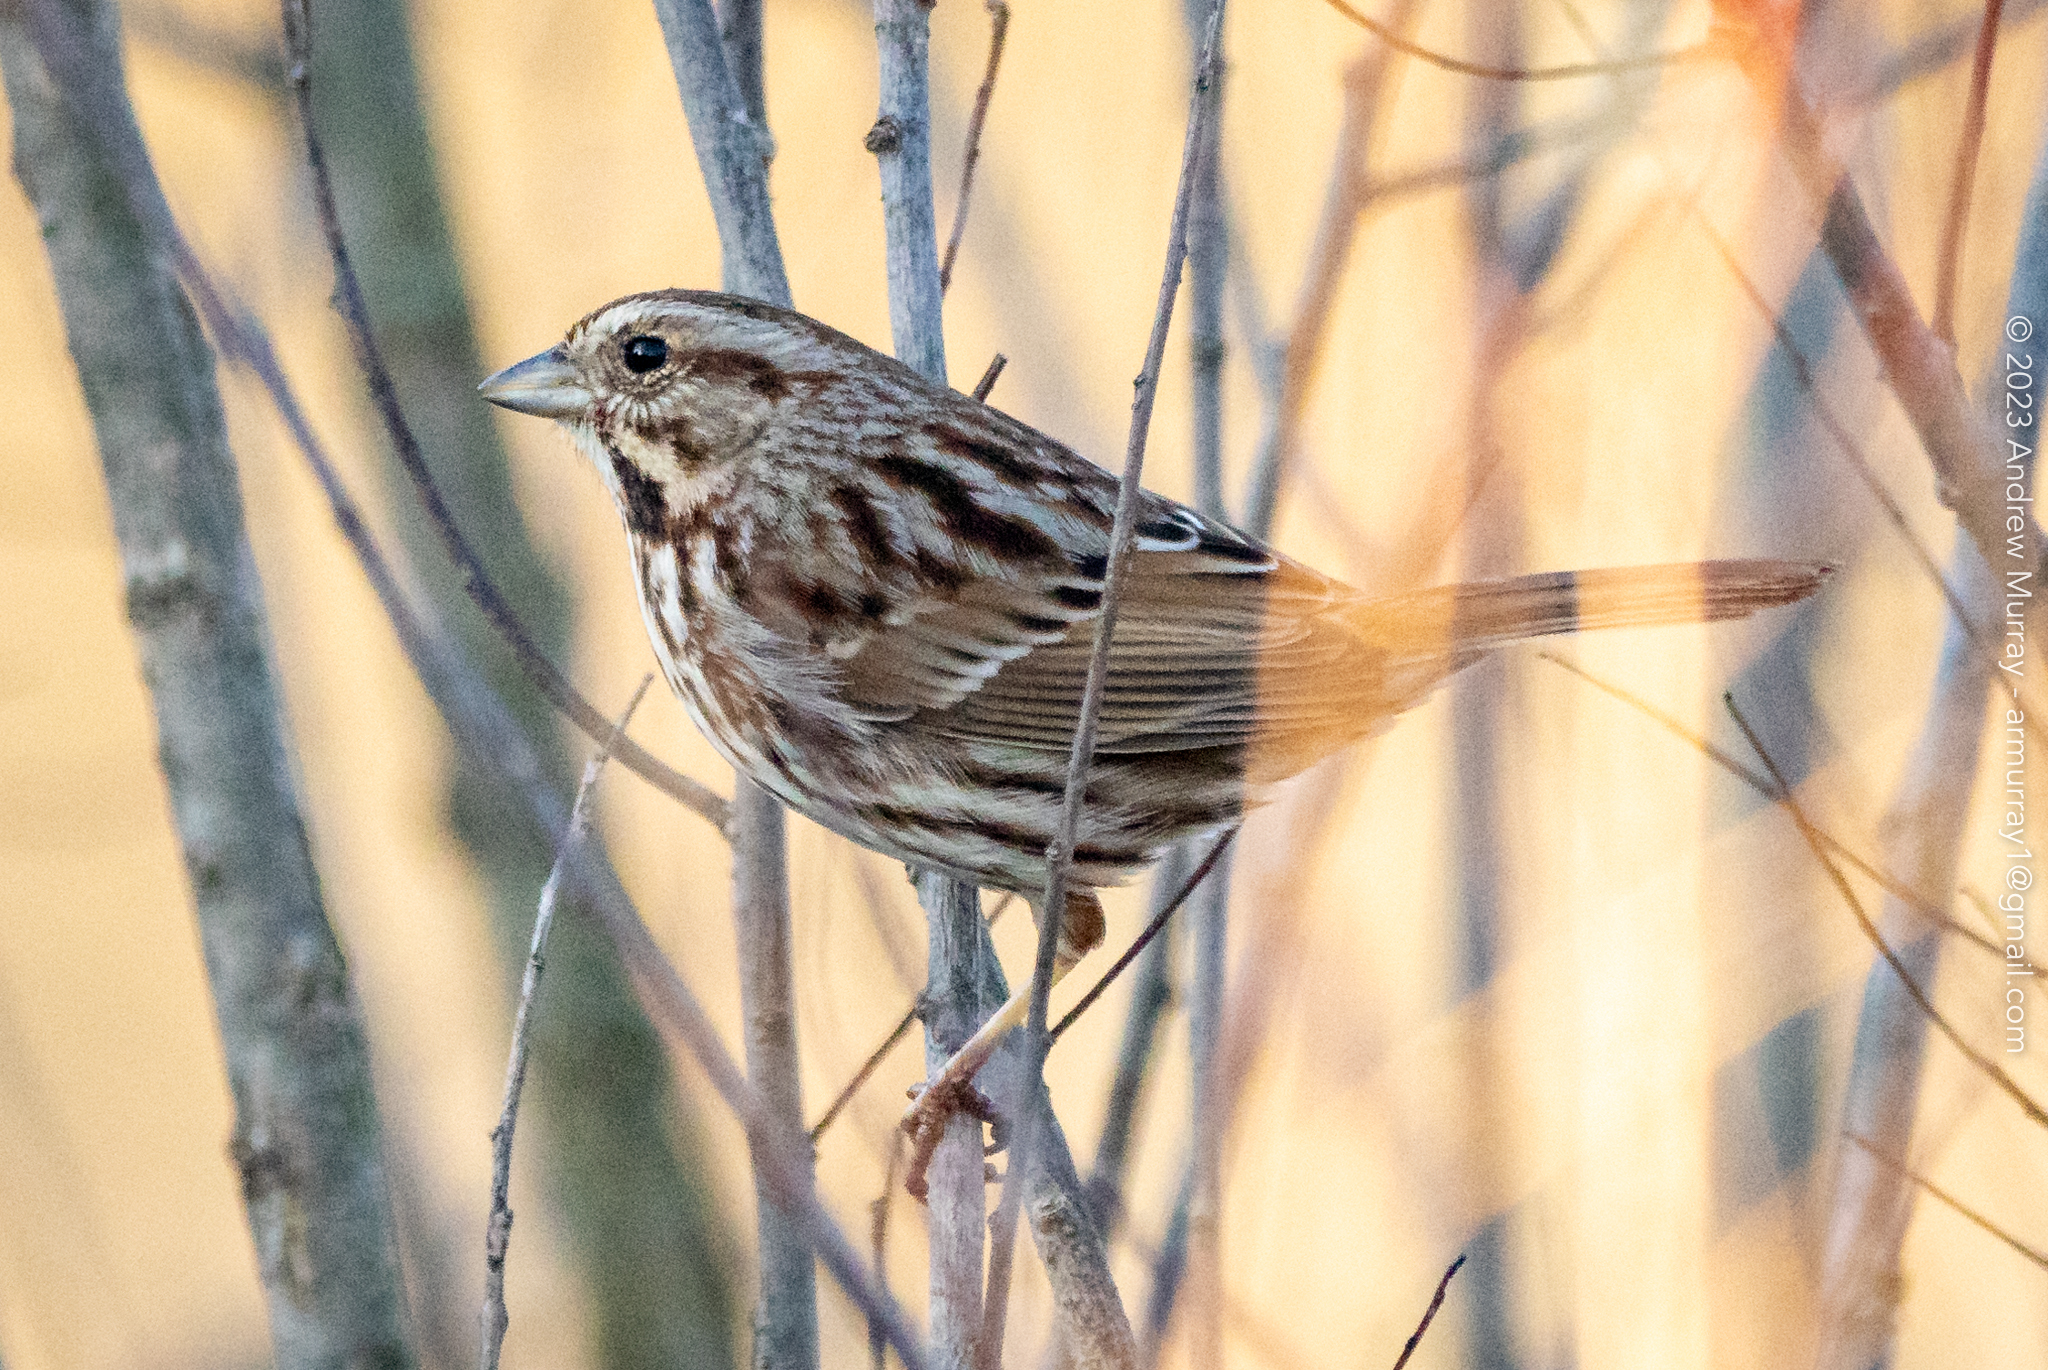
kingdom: Animalia
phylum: Chordata
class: Aves
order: Passeriformes
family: Passerellidae
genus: Melospiza
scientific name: Melospiza melodia
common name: Song sparrow
